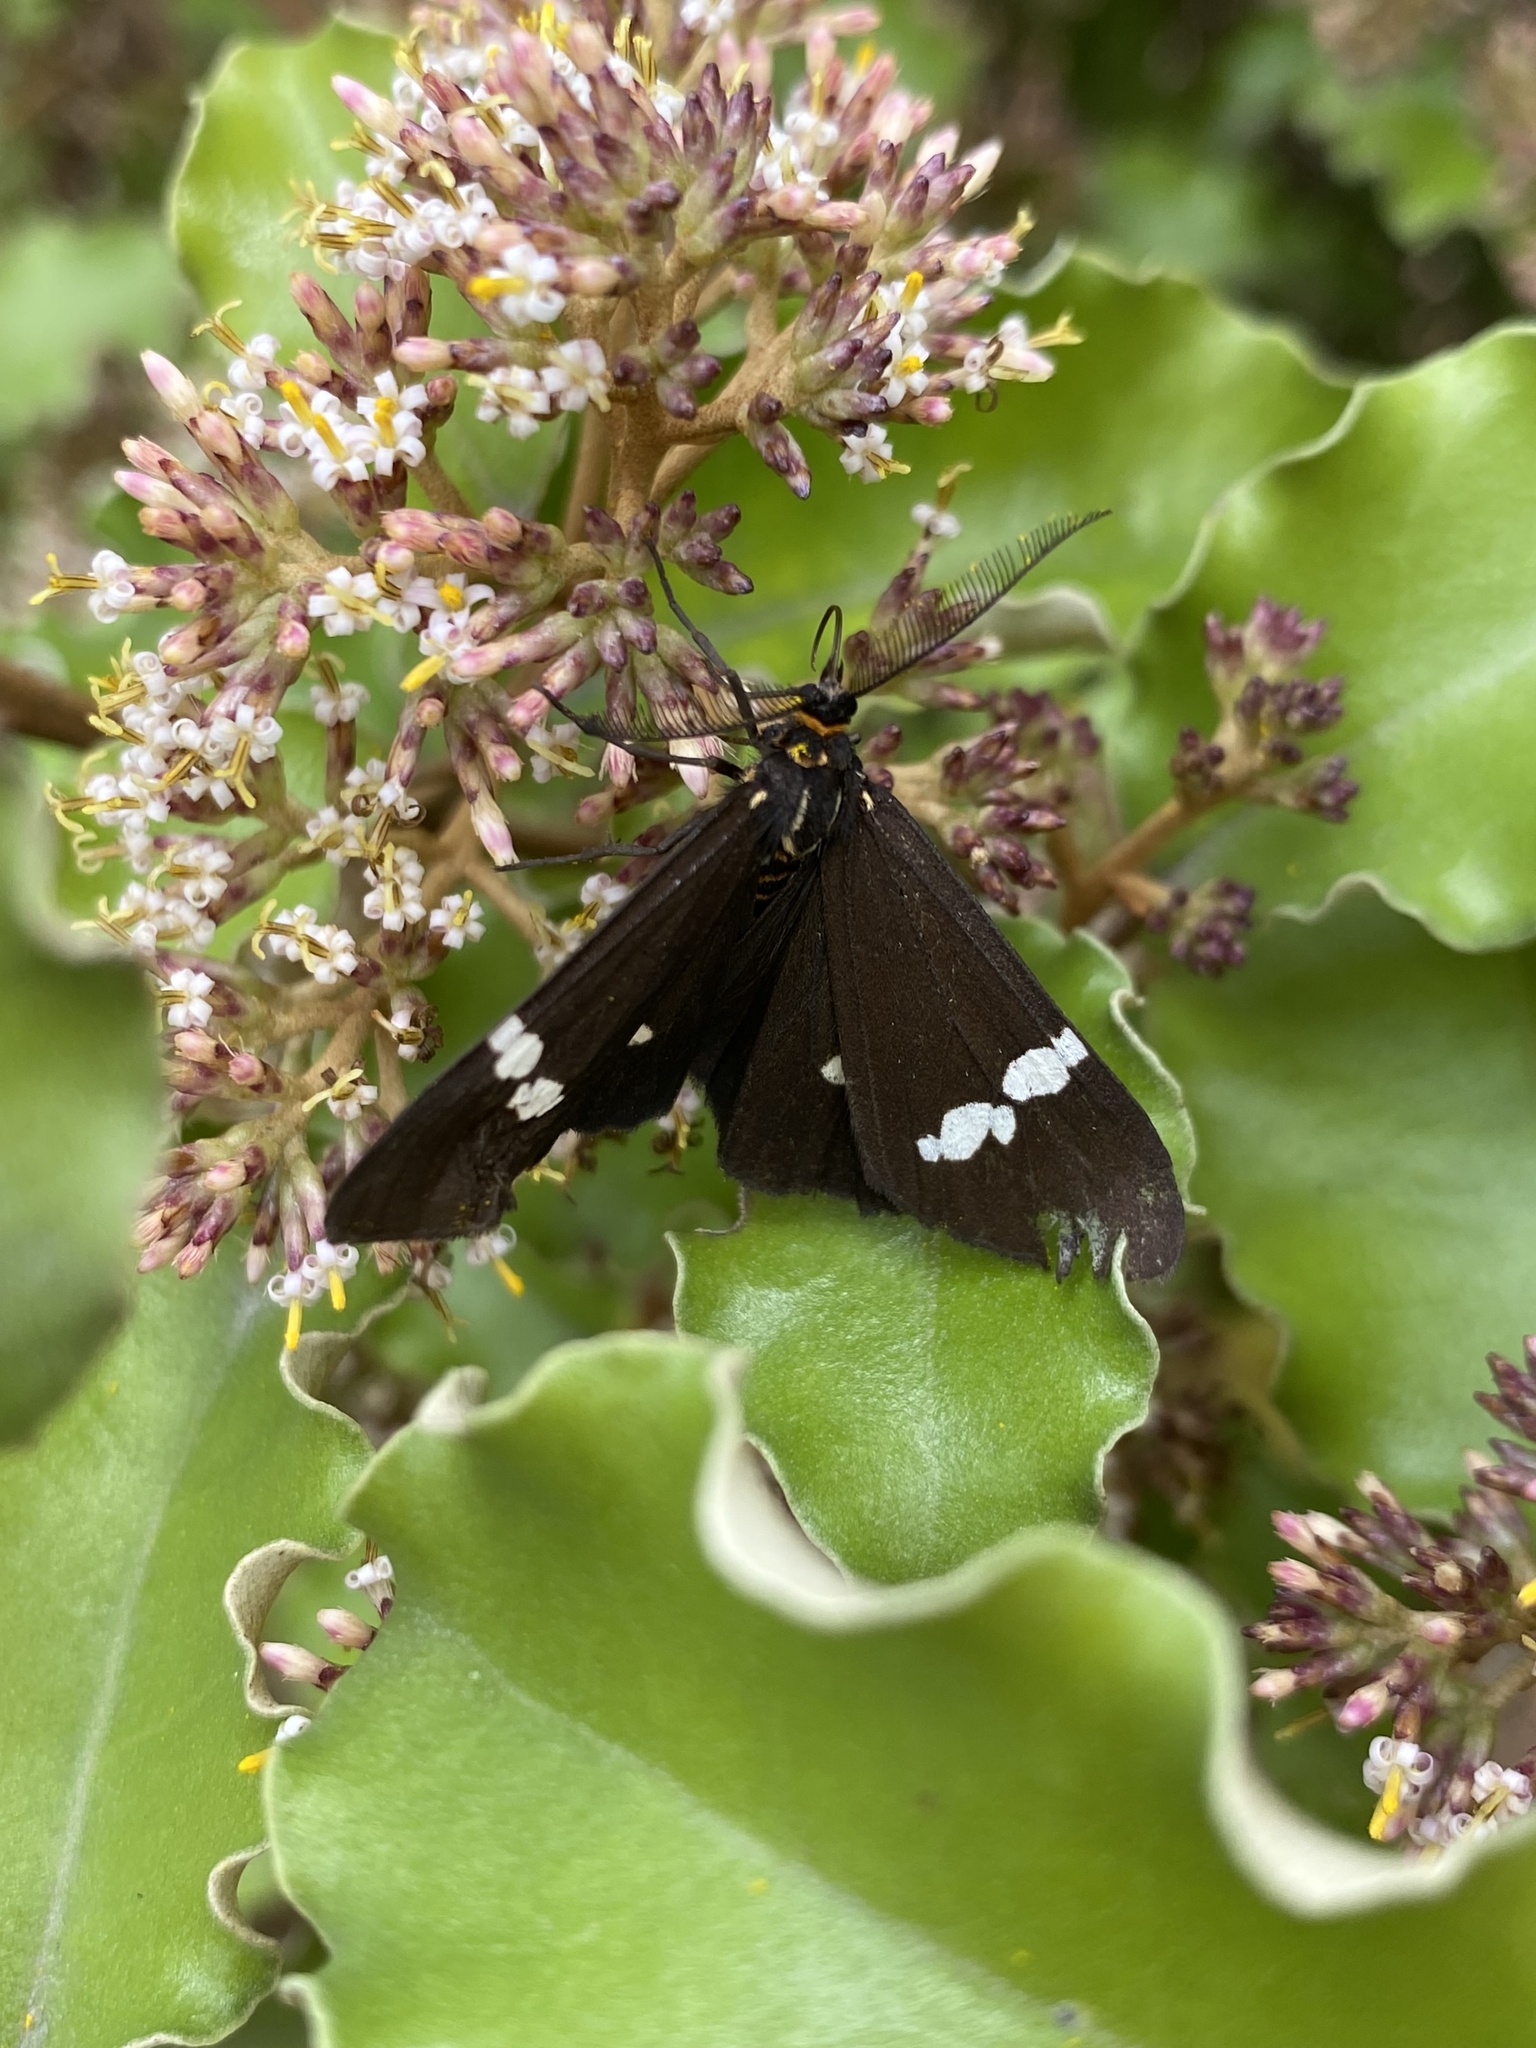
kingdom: Animalia
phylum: Arthropoda
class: Insecta
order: Lepidoptera
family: Erebidae
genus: Nyctemera
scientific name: Nyctemera annulatum
